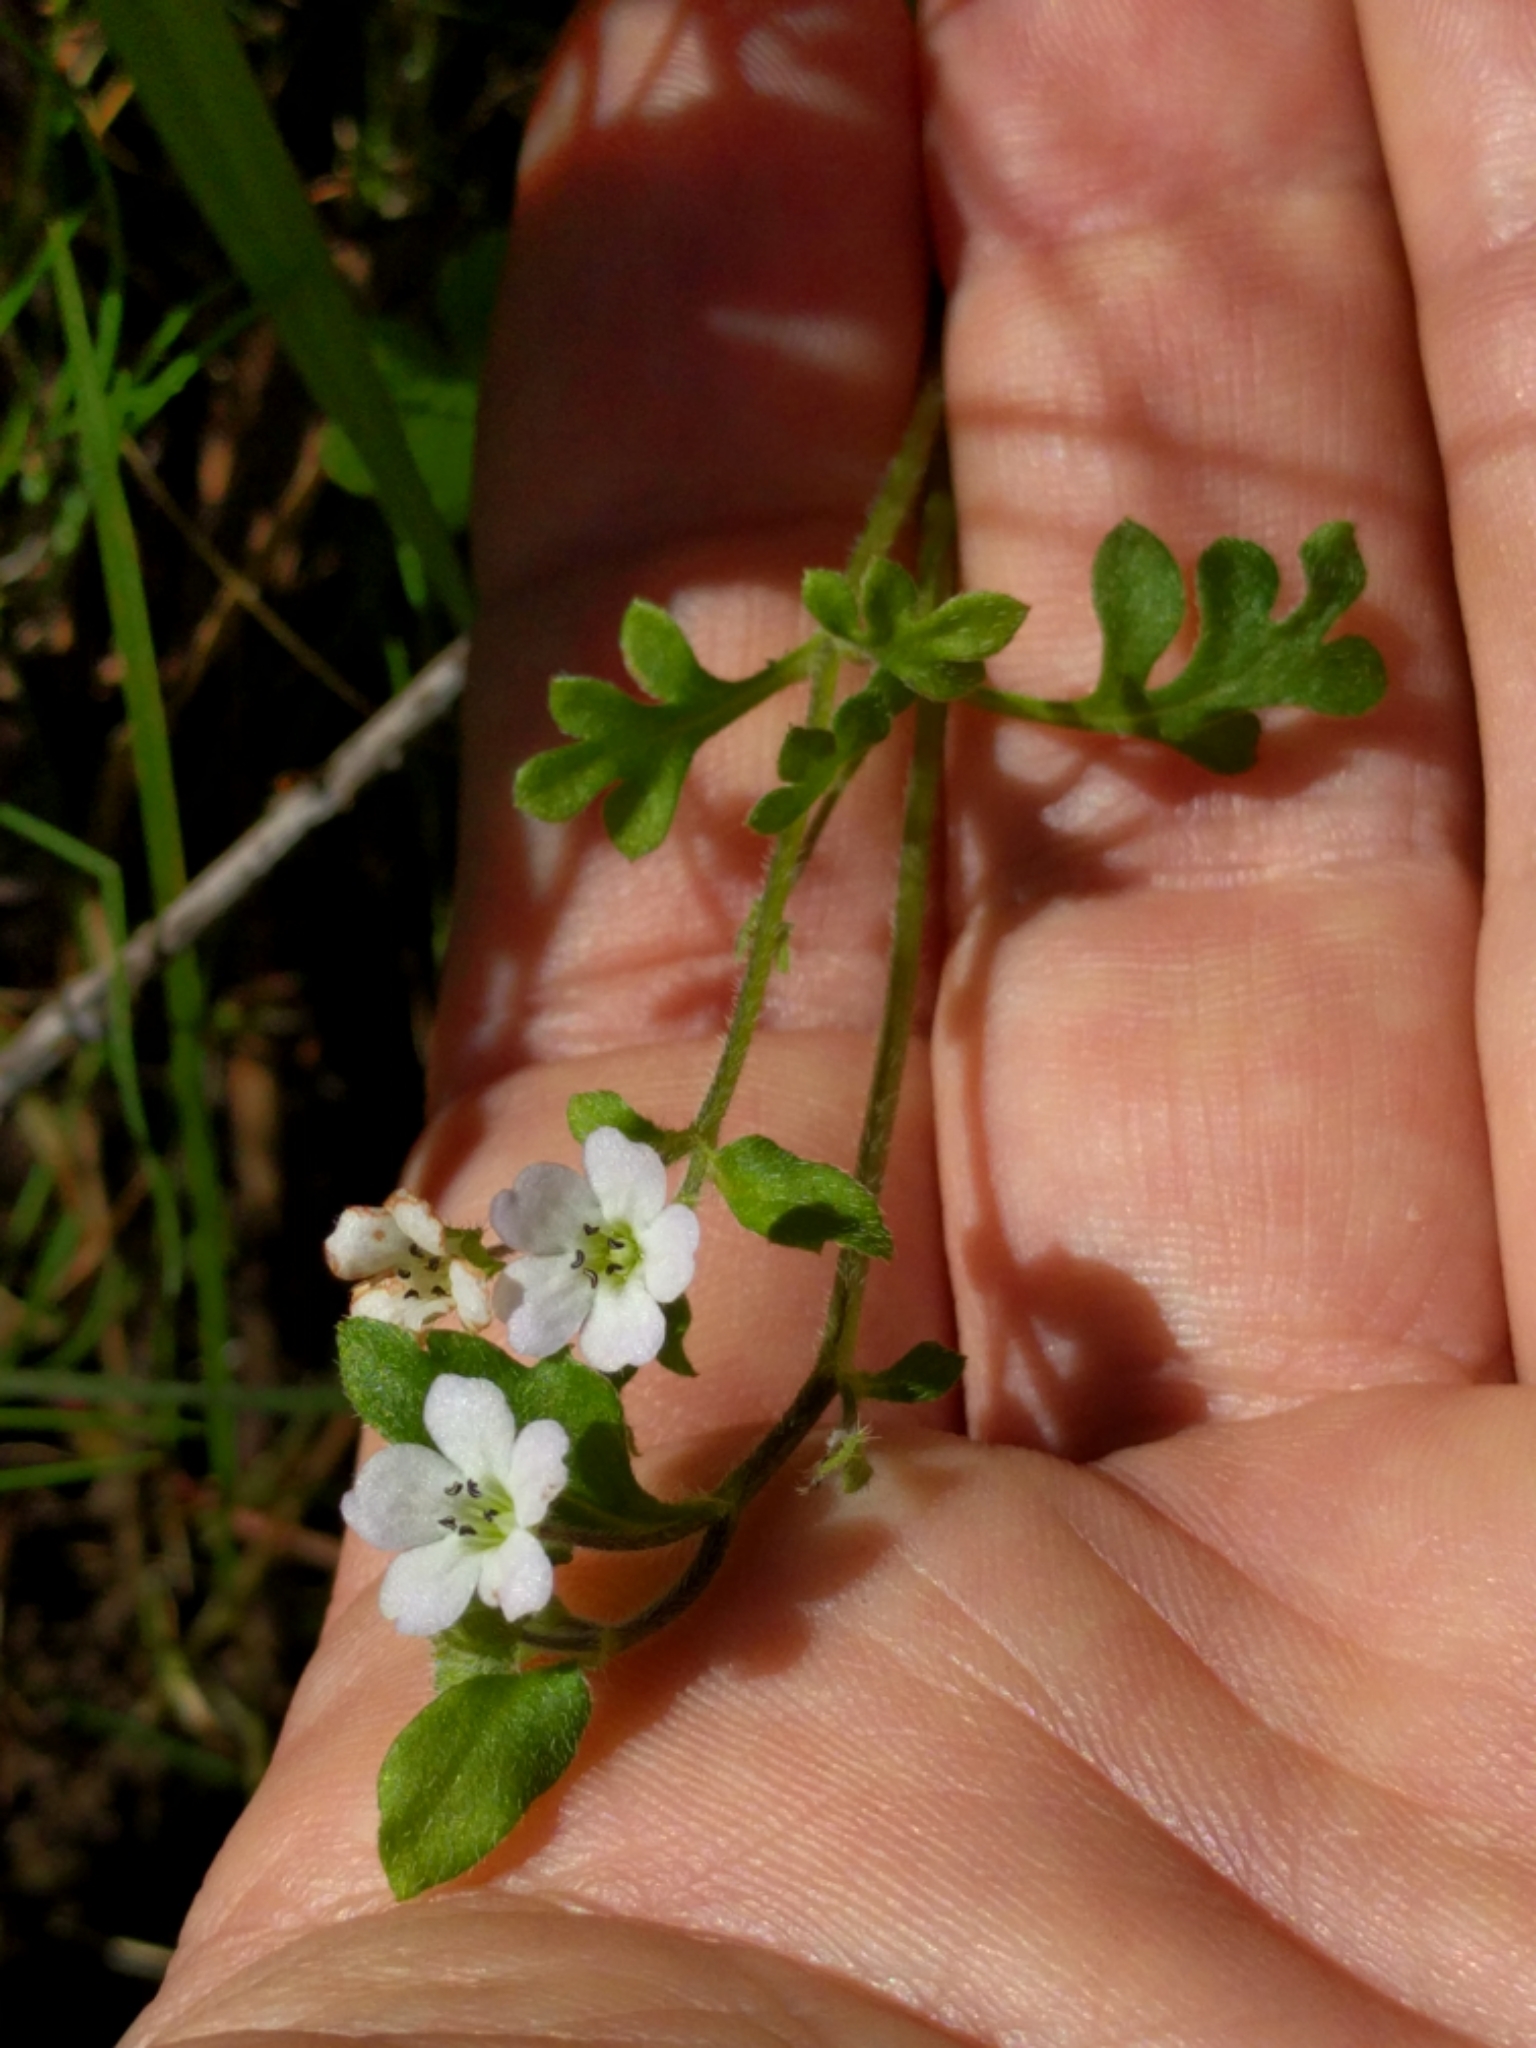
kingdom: Plantae
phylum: Tracheophyta
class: Magnoliopsida
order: Boraginales
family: Hydrophyllaceae
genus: Nemophila
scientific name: Nemophila heterophylla
